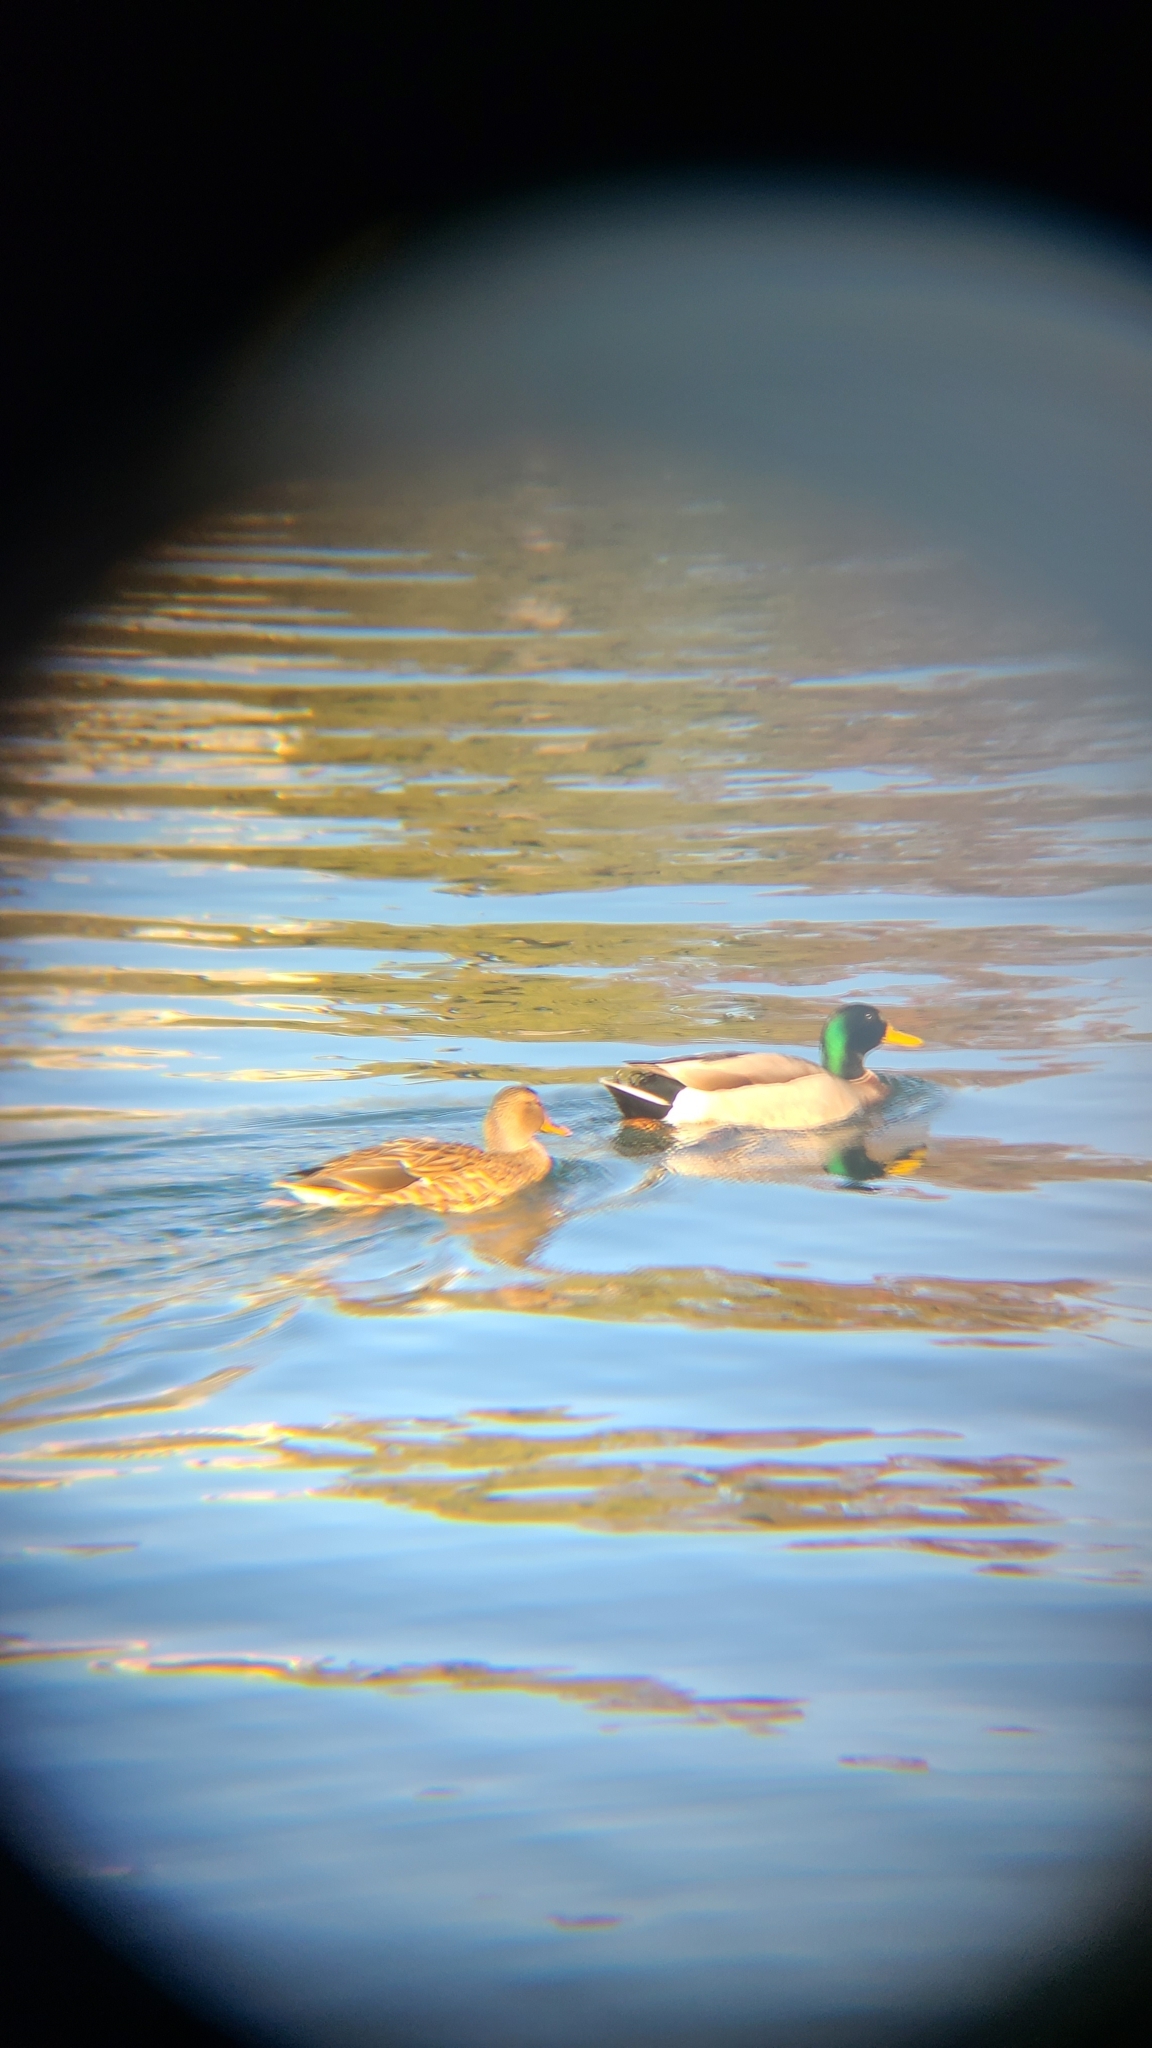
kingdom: Animalia
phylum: Chordata
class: Aves
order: Anseriformes
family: Anatidae
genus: Anas
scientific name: Anas platyrhynchos
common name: Mallard
